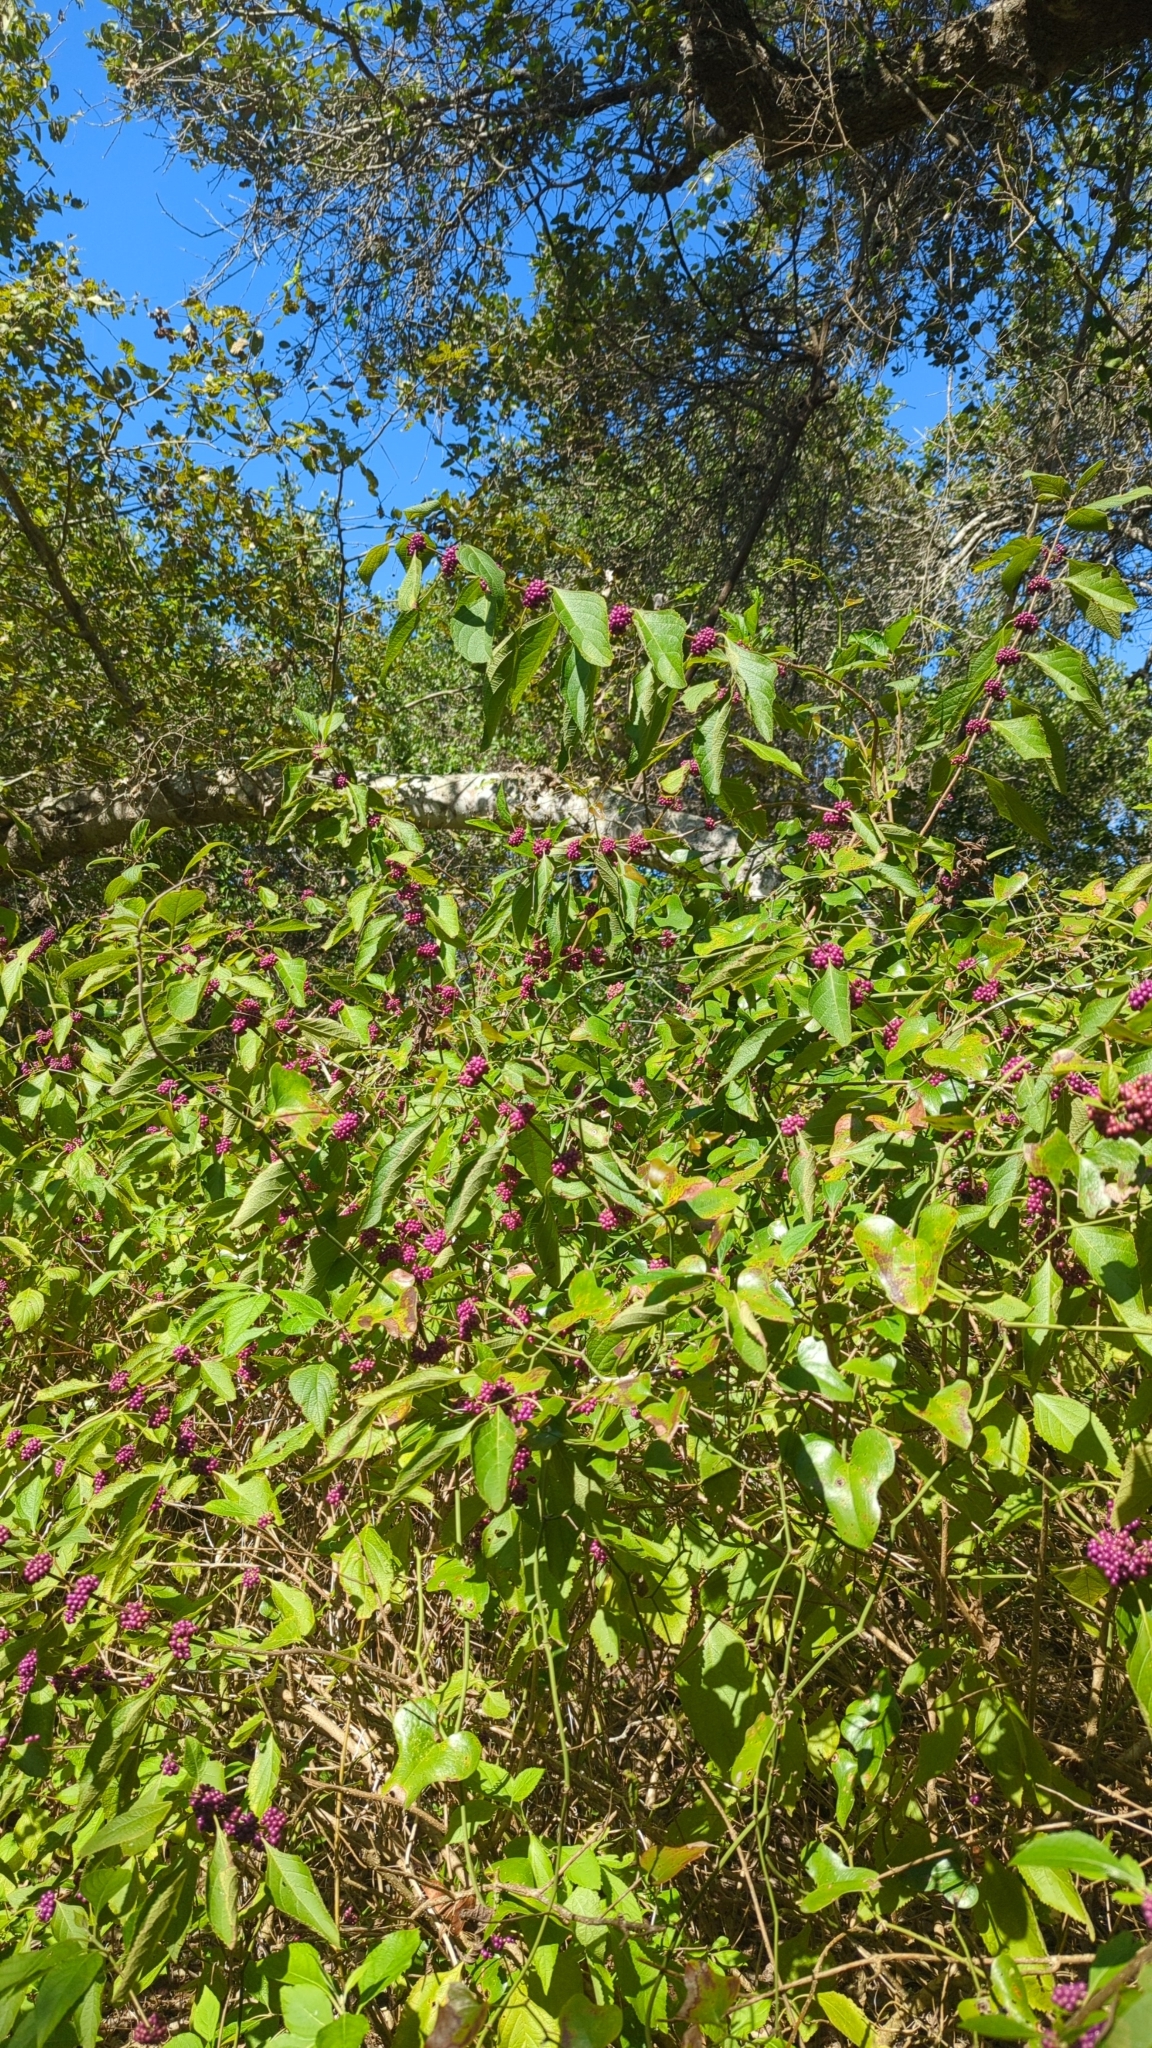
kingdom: Plantae
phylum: Tracheophyta
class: Magnoliopsida
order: Lamiales
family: Lamiaceae
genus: Callicarpa
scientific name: Callicarpa americana
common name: American beautyberry
